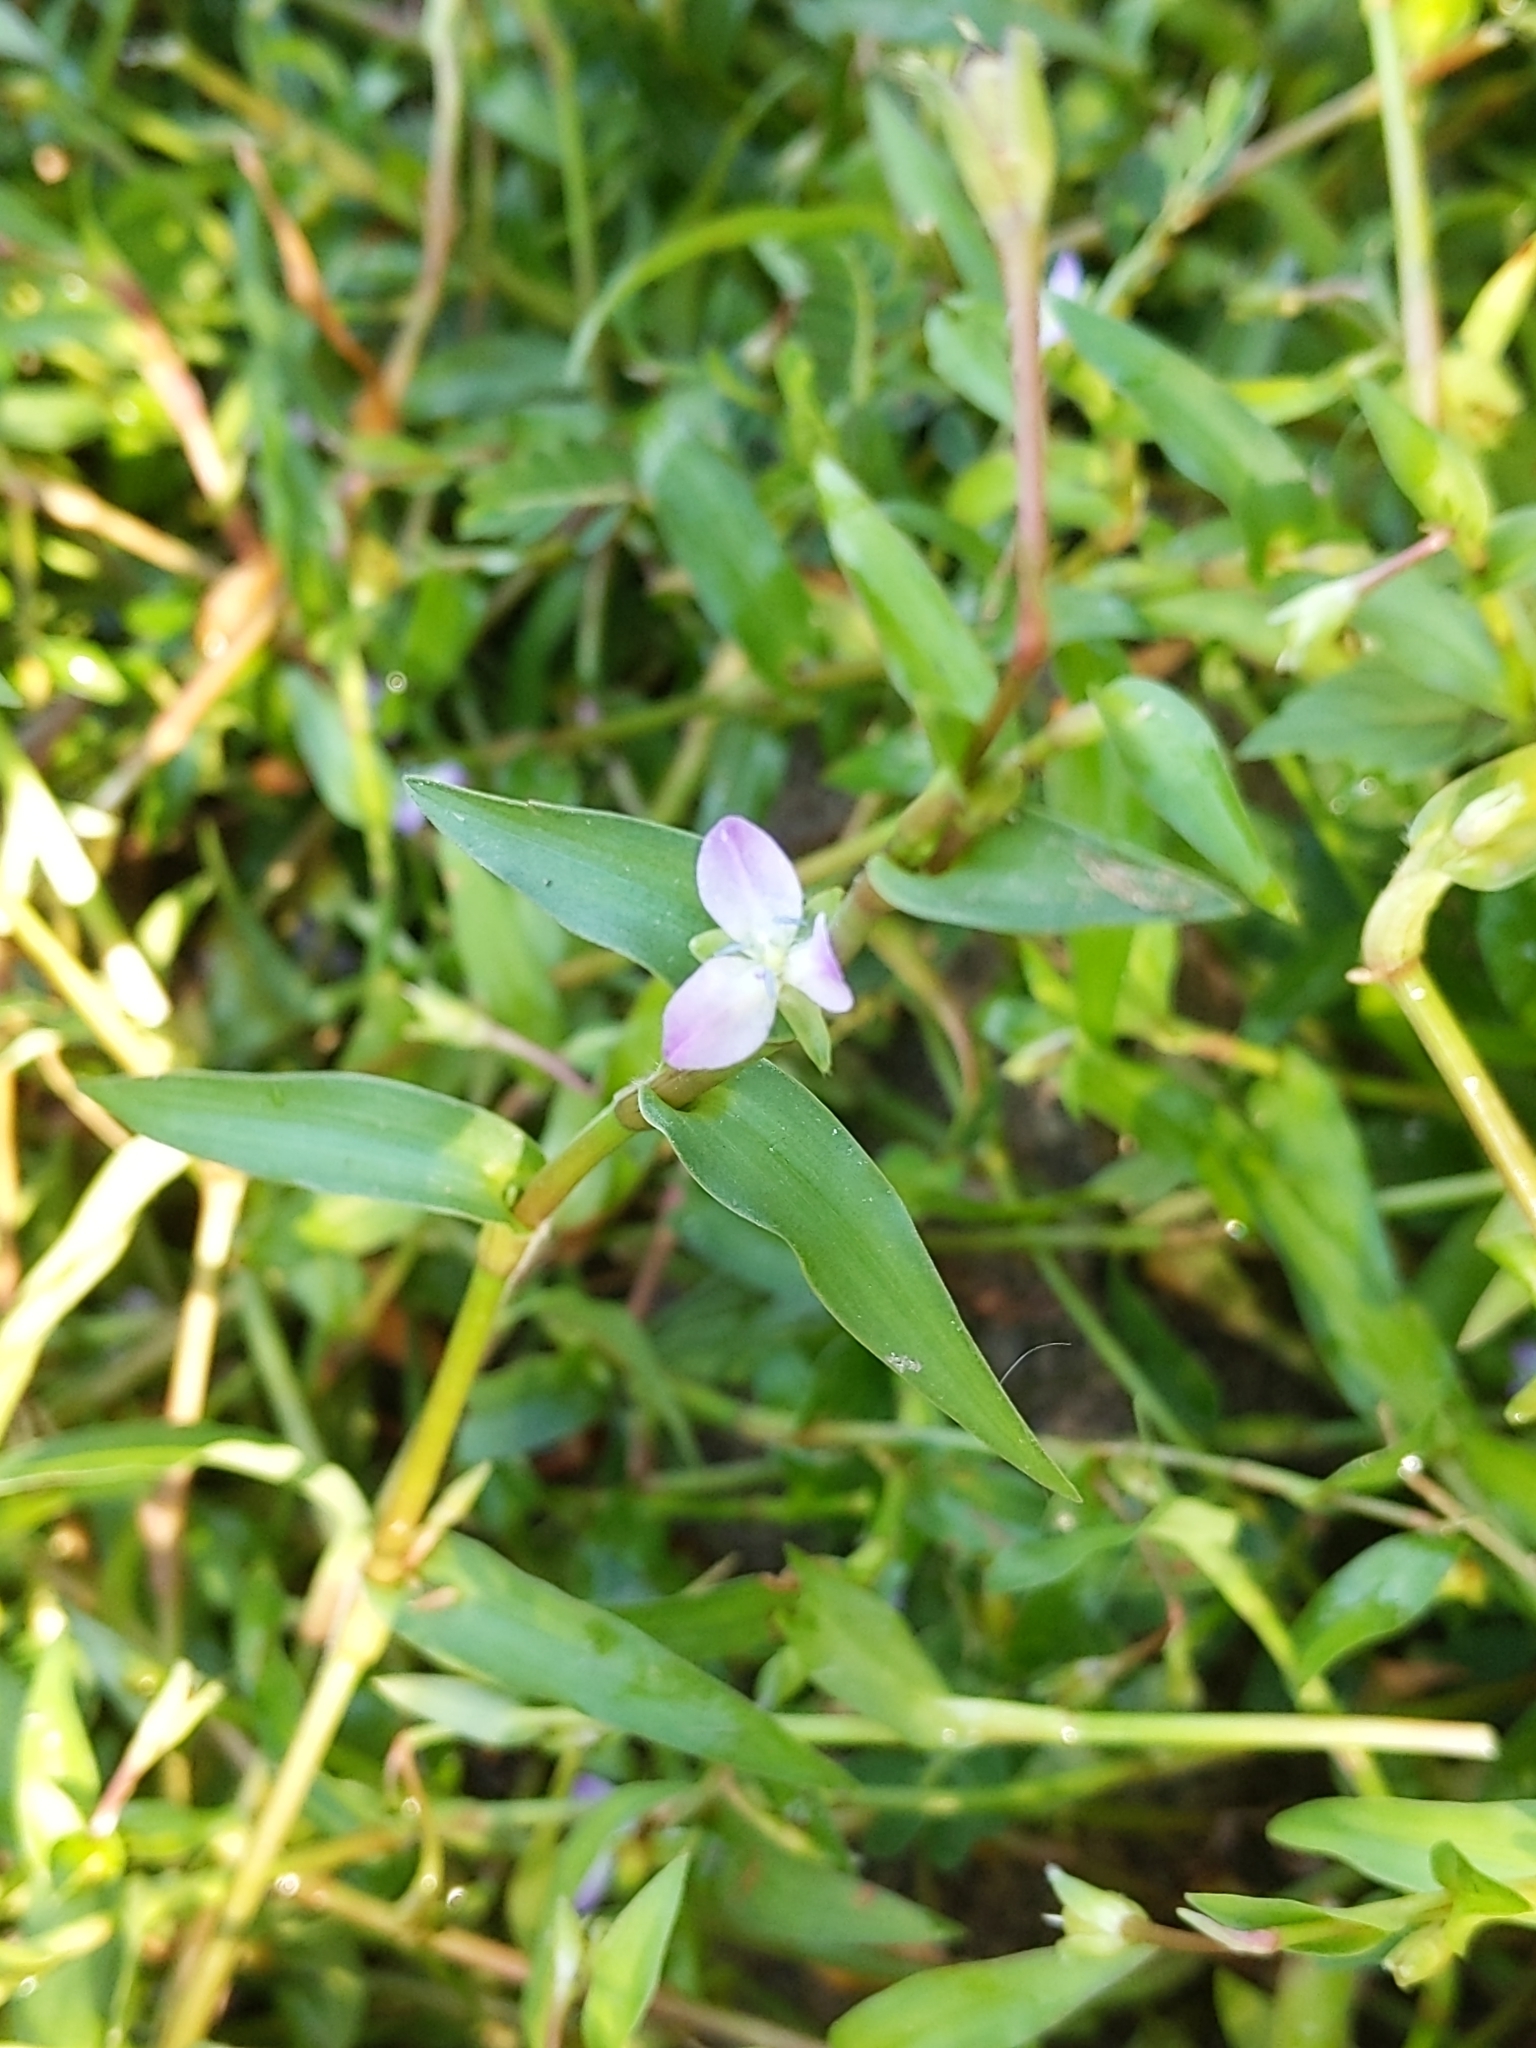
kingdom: Plantae
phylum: Tracheophyta
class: Liliopsida
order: Commelinales
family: Commelinaceae
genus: Murdannia
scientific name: Murdannia keisak
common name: Wartremoving herb
